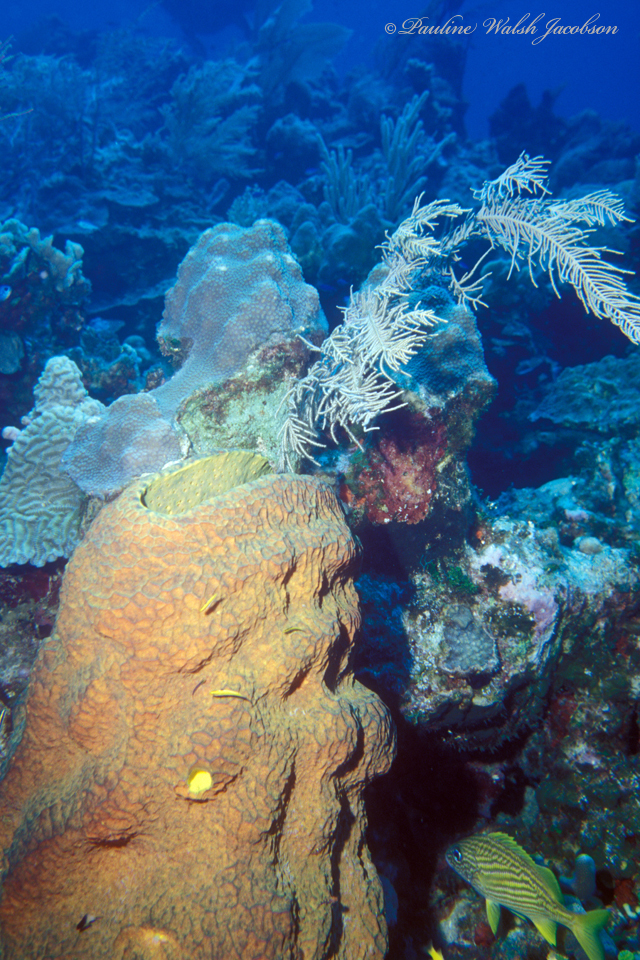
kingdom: Animalia
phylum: Chordata
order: Perciformes
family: Haemulidae
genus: Haemulon
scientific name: Haemulon flavolineatum
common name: French grunt
